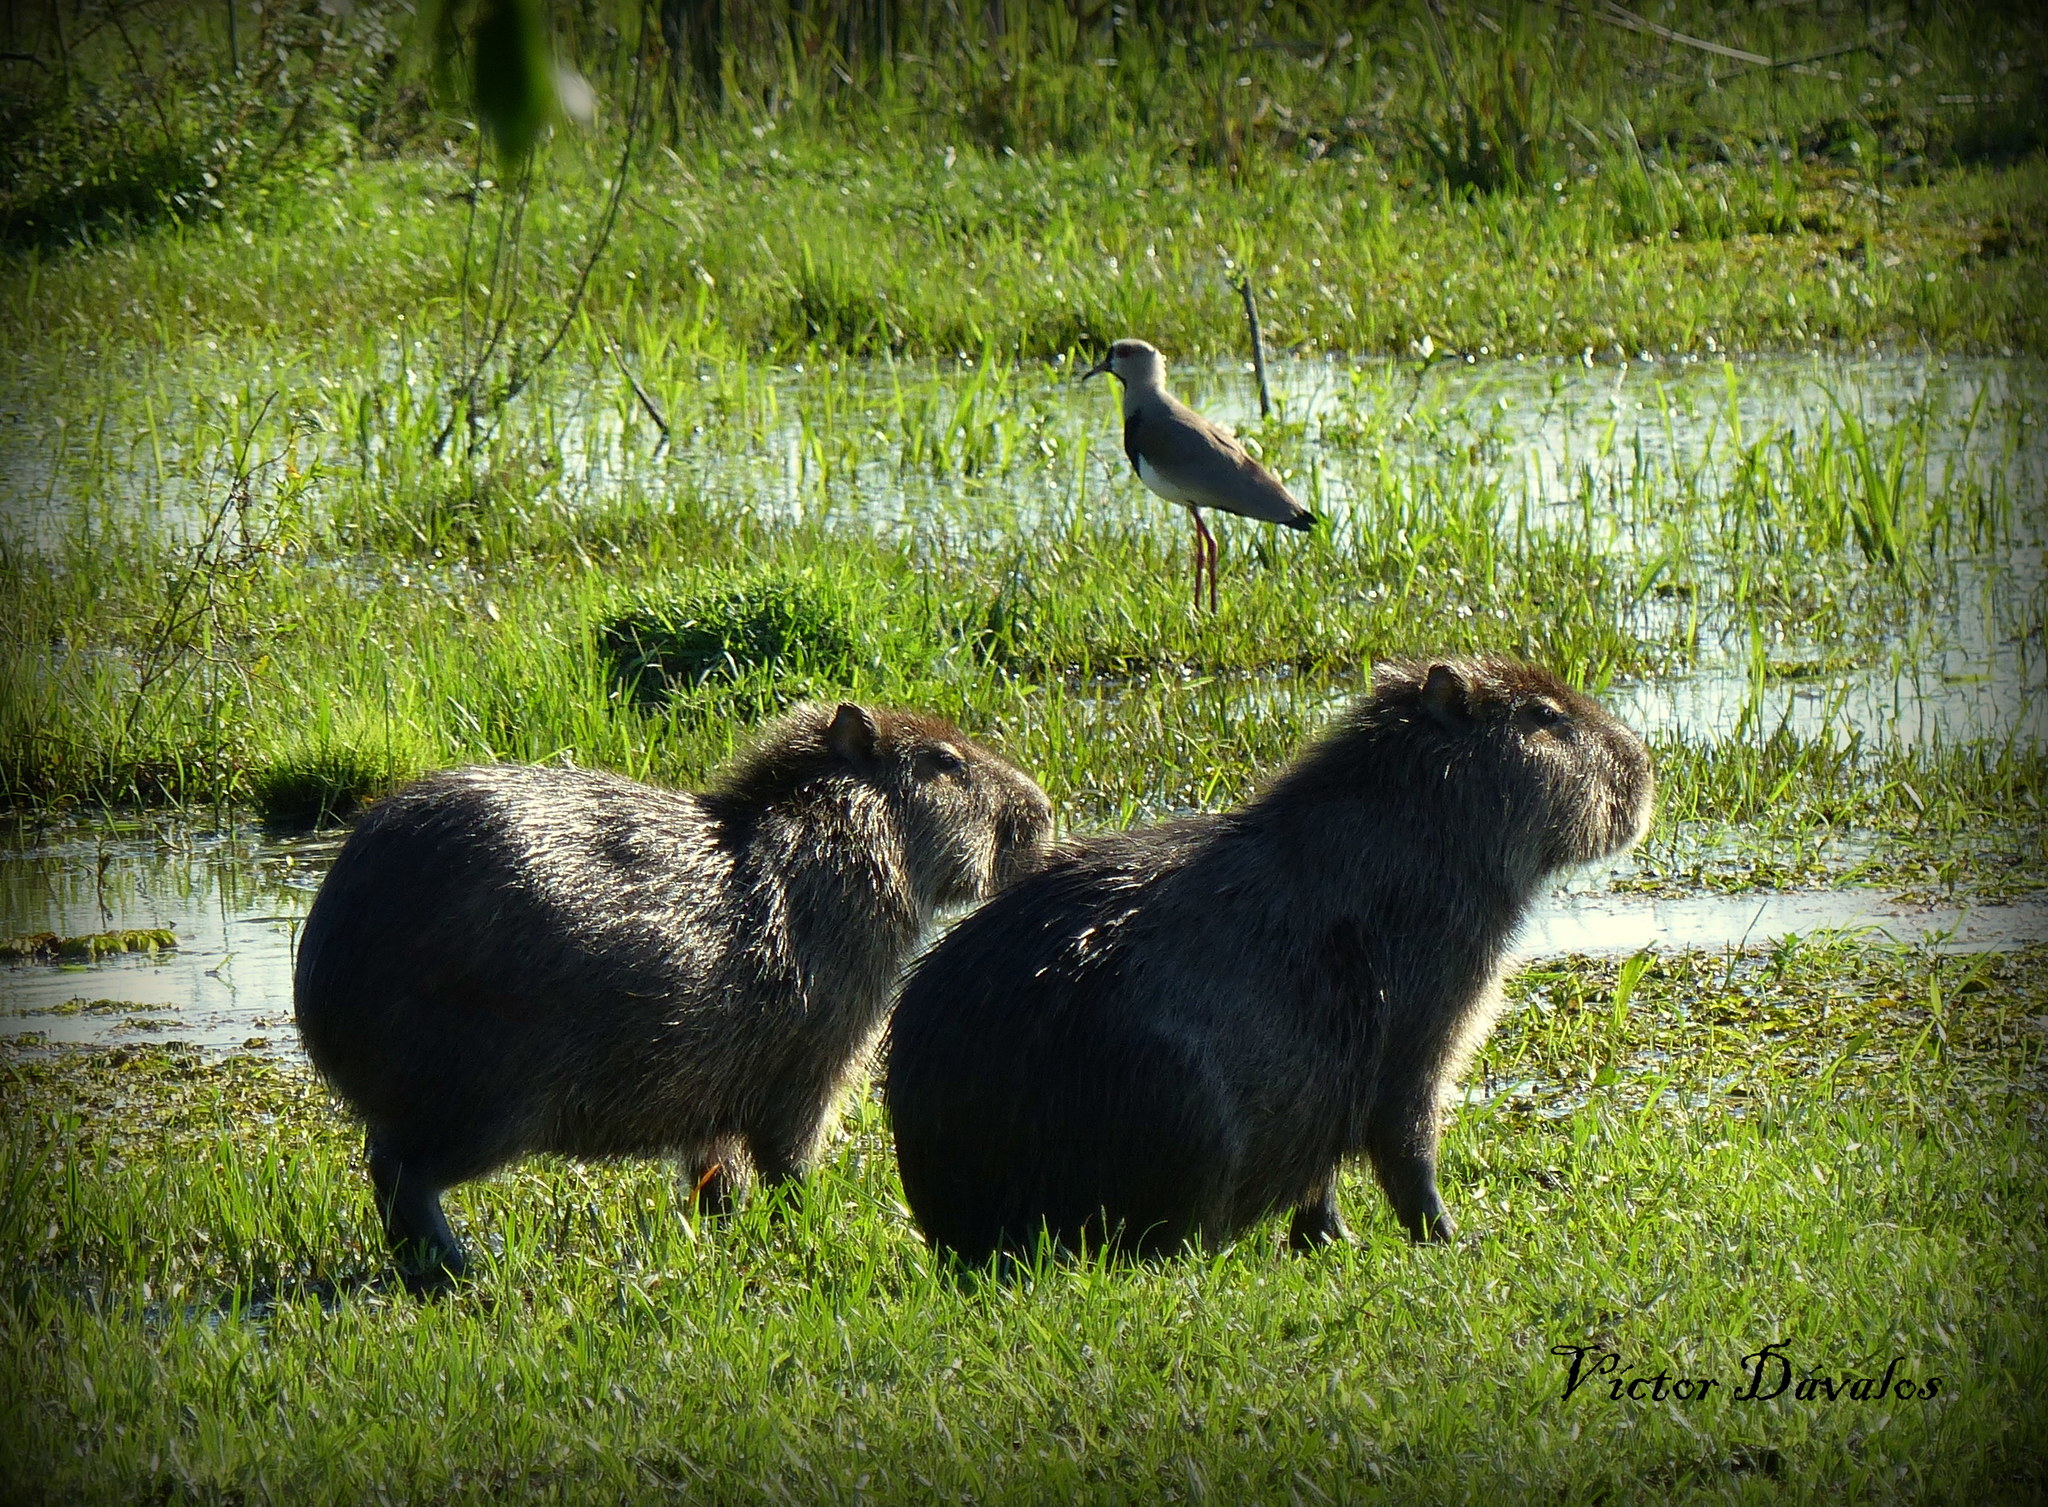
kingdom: Animalia
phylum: Chordata
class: Mammalia
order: Rodentia
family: Caviidae
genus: Hydrochoerus
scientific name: Hydrochoerus hydrochaeris
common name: Capybara
